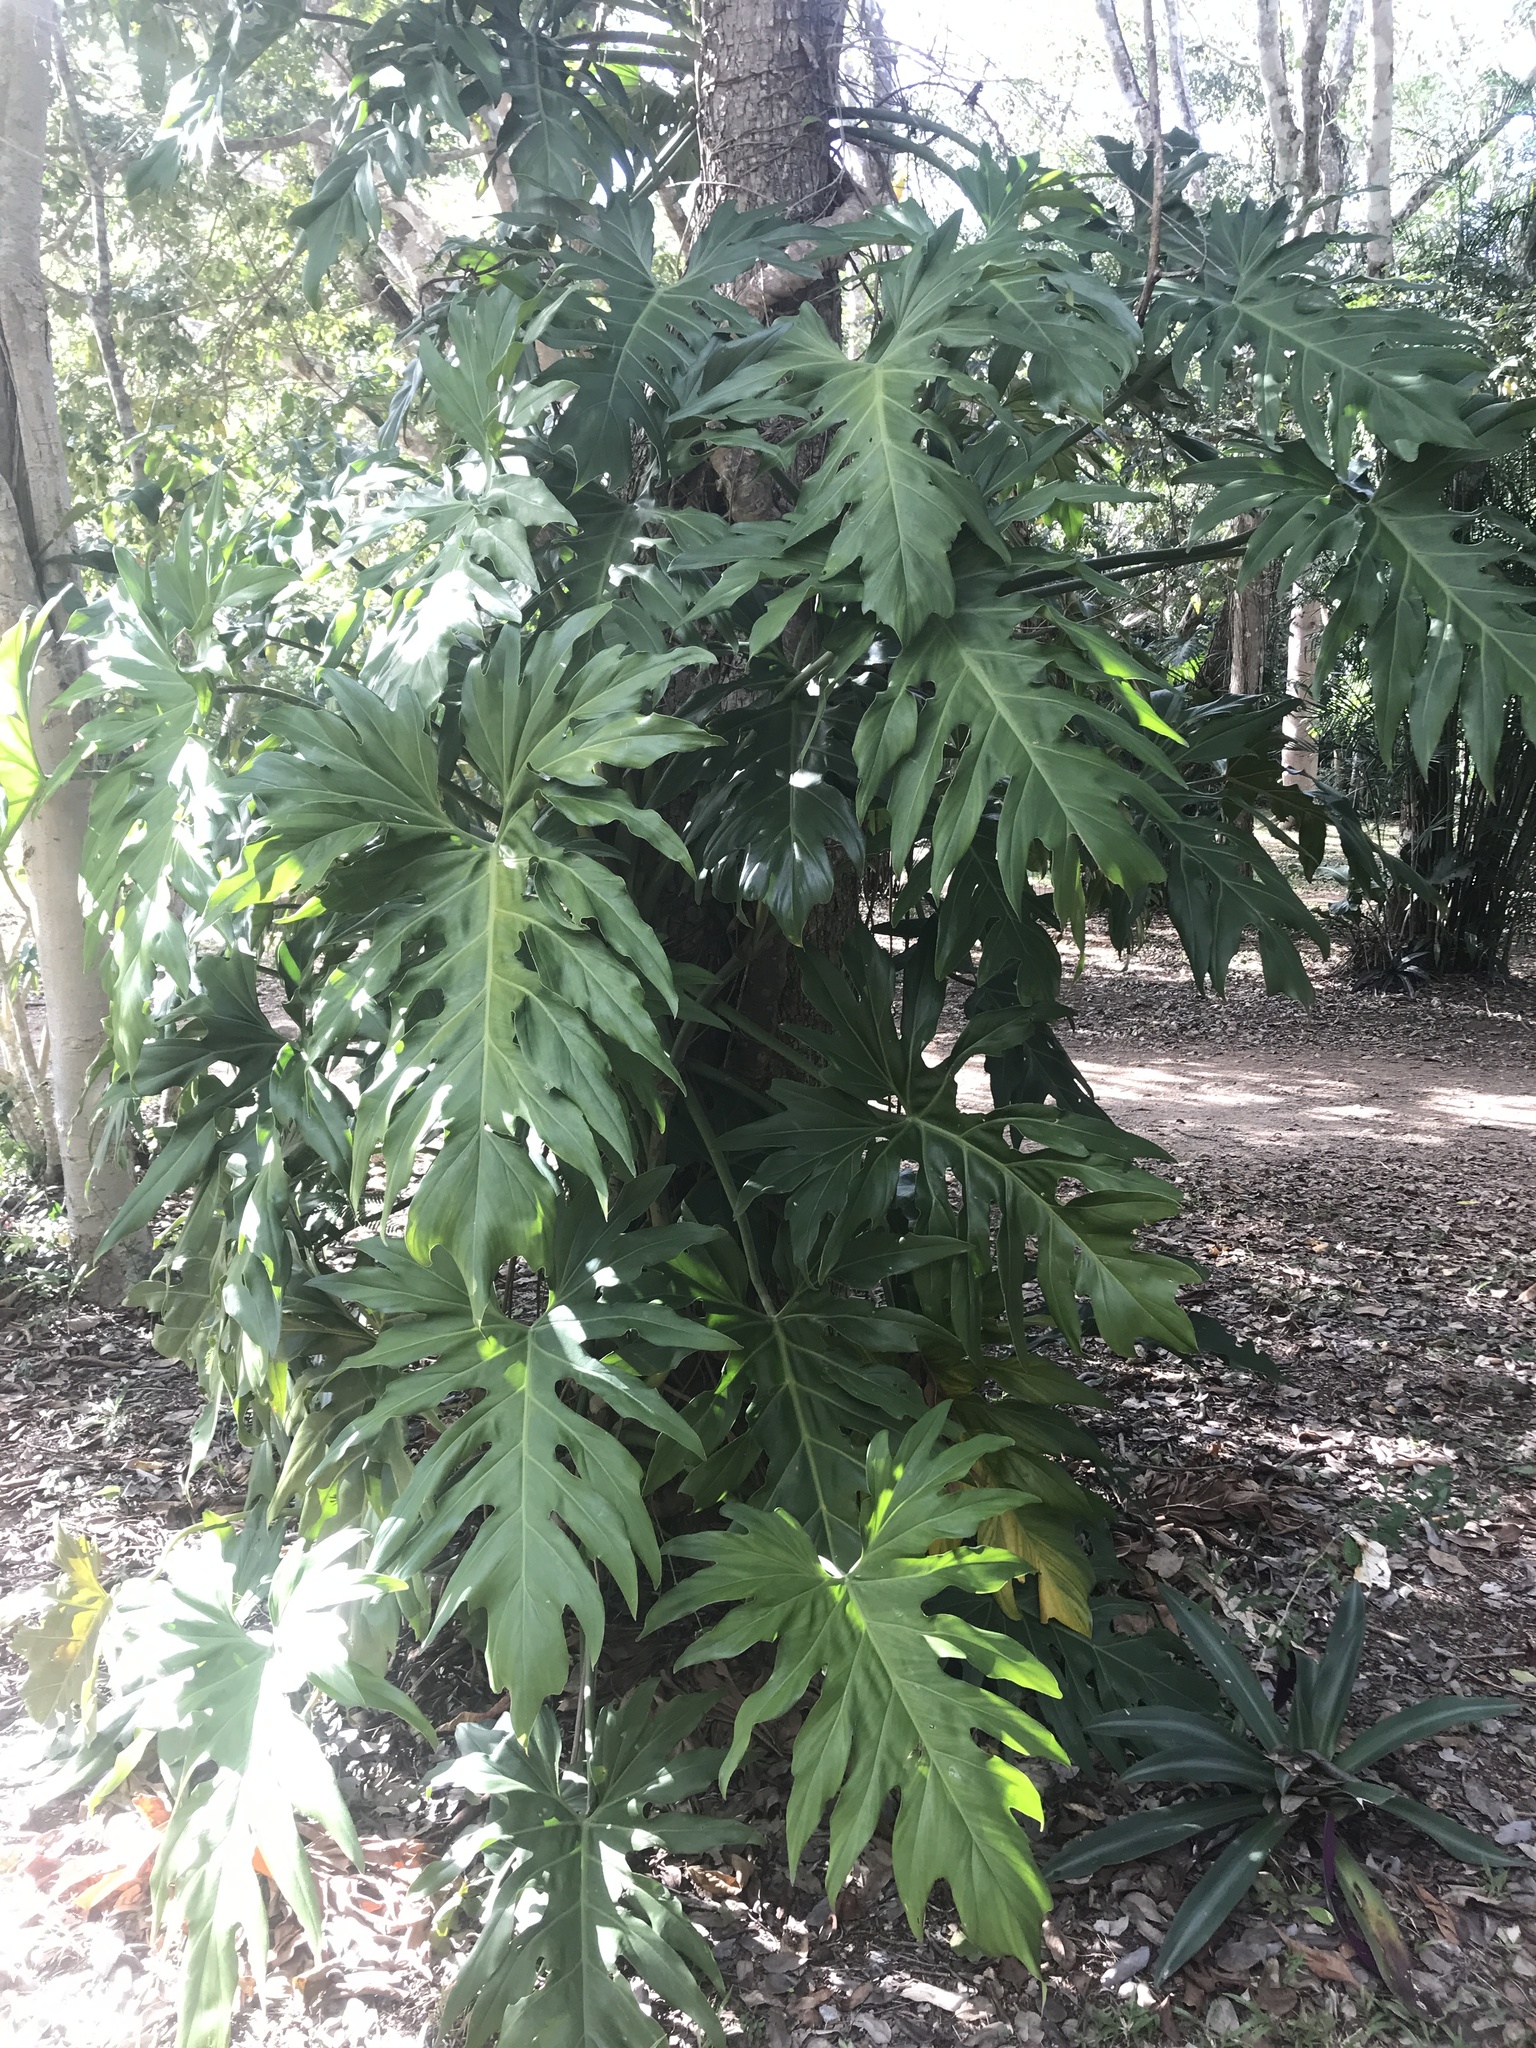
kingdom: Plantae
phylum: Tracheophyta
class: Liliopsida
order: Alismatales
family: Araceae
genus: Philodendron
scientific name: Philodendron radiatum
